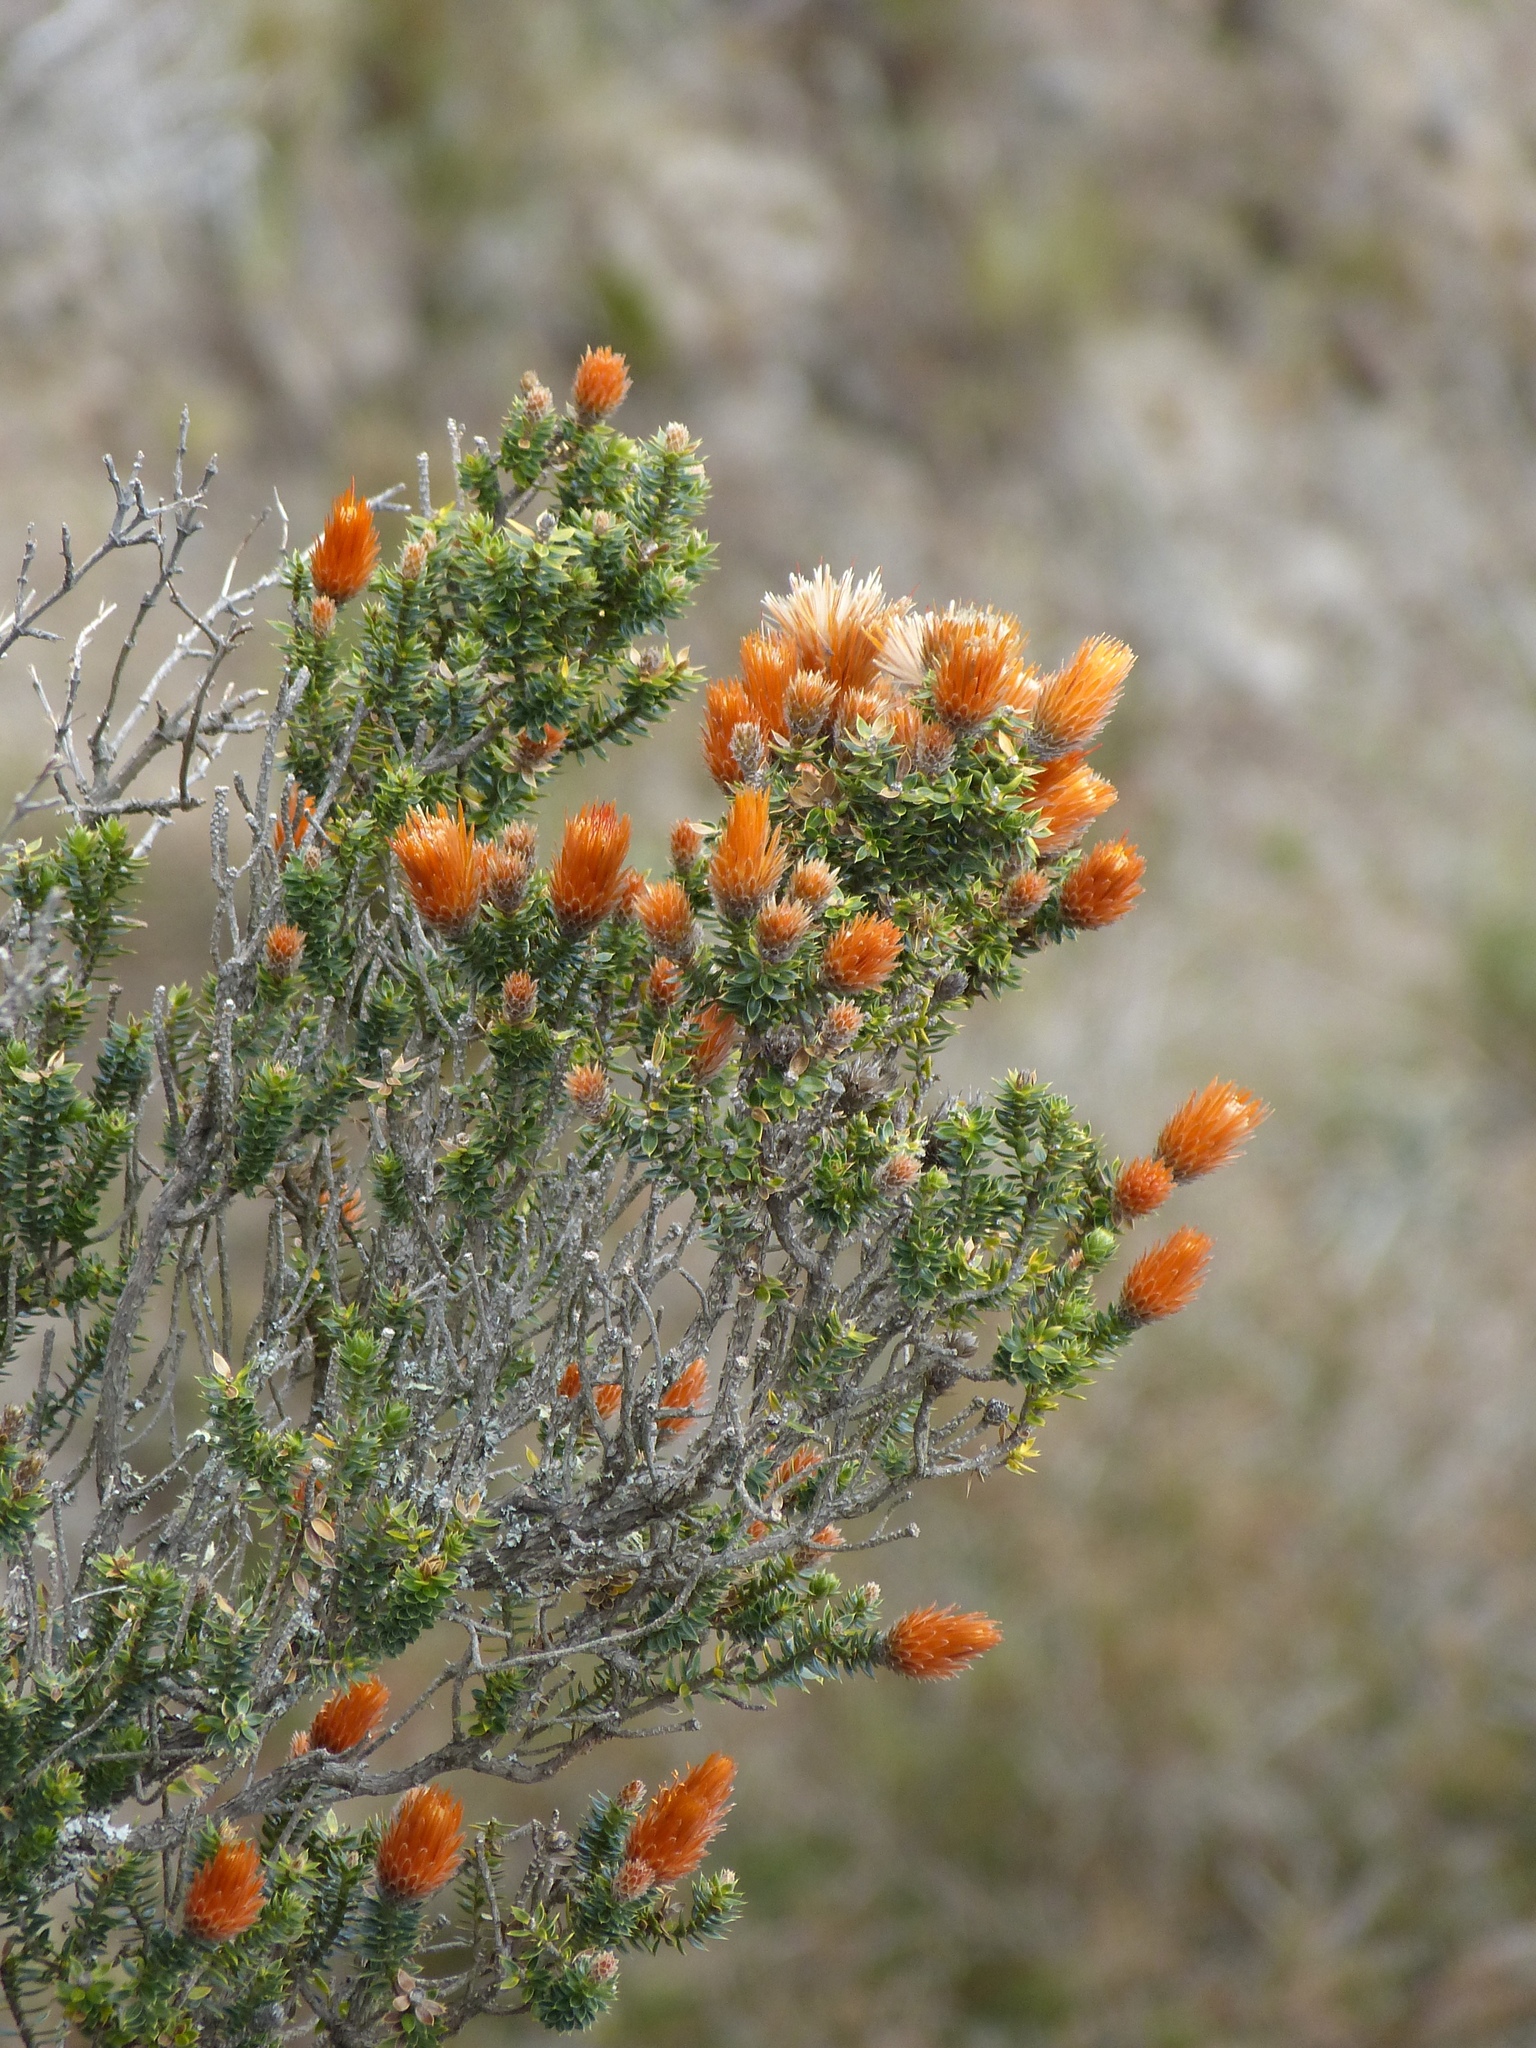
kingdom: Plantae
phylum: Tracheophyta
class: Magnoliopsida
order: Asterales
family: Asteraceae
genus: Chuquiraga
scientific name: Chuquiraga jussieui
